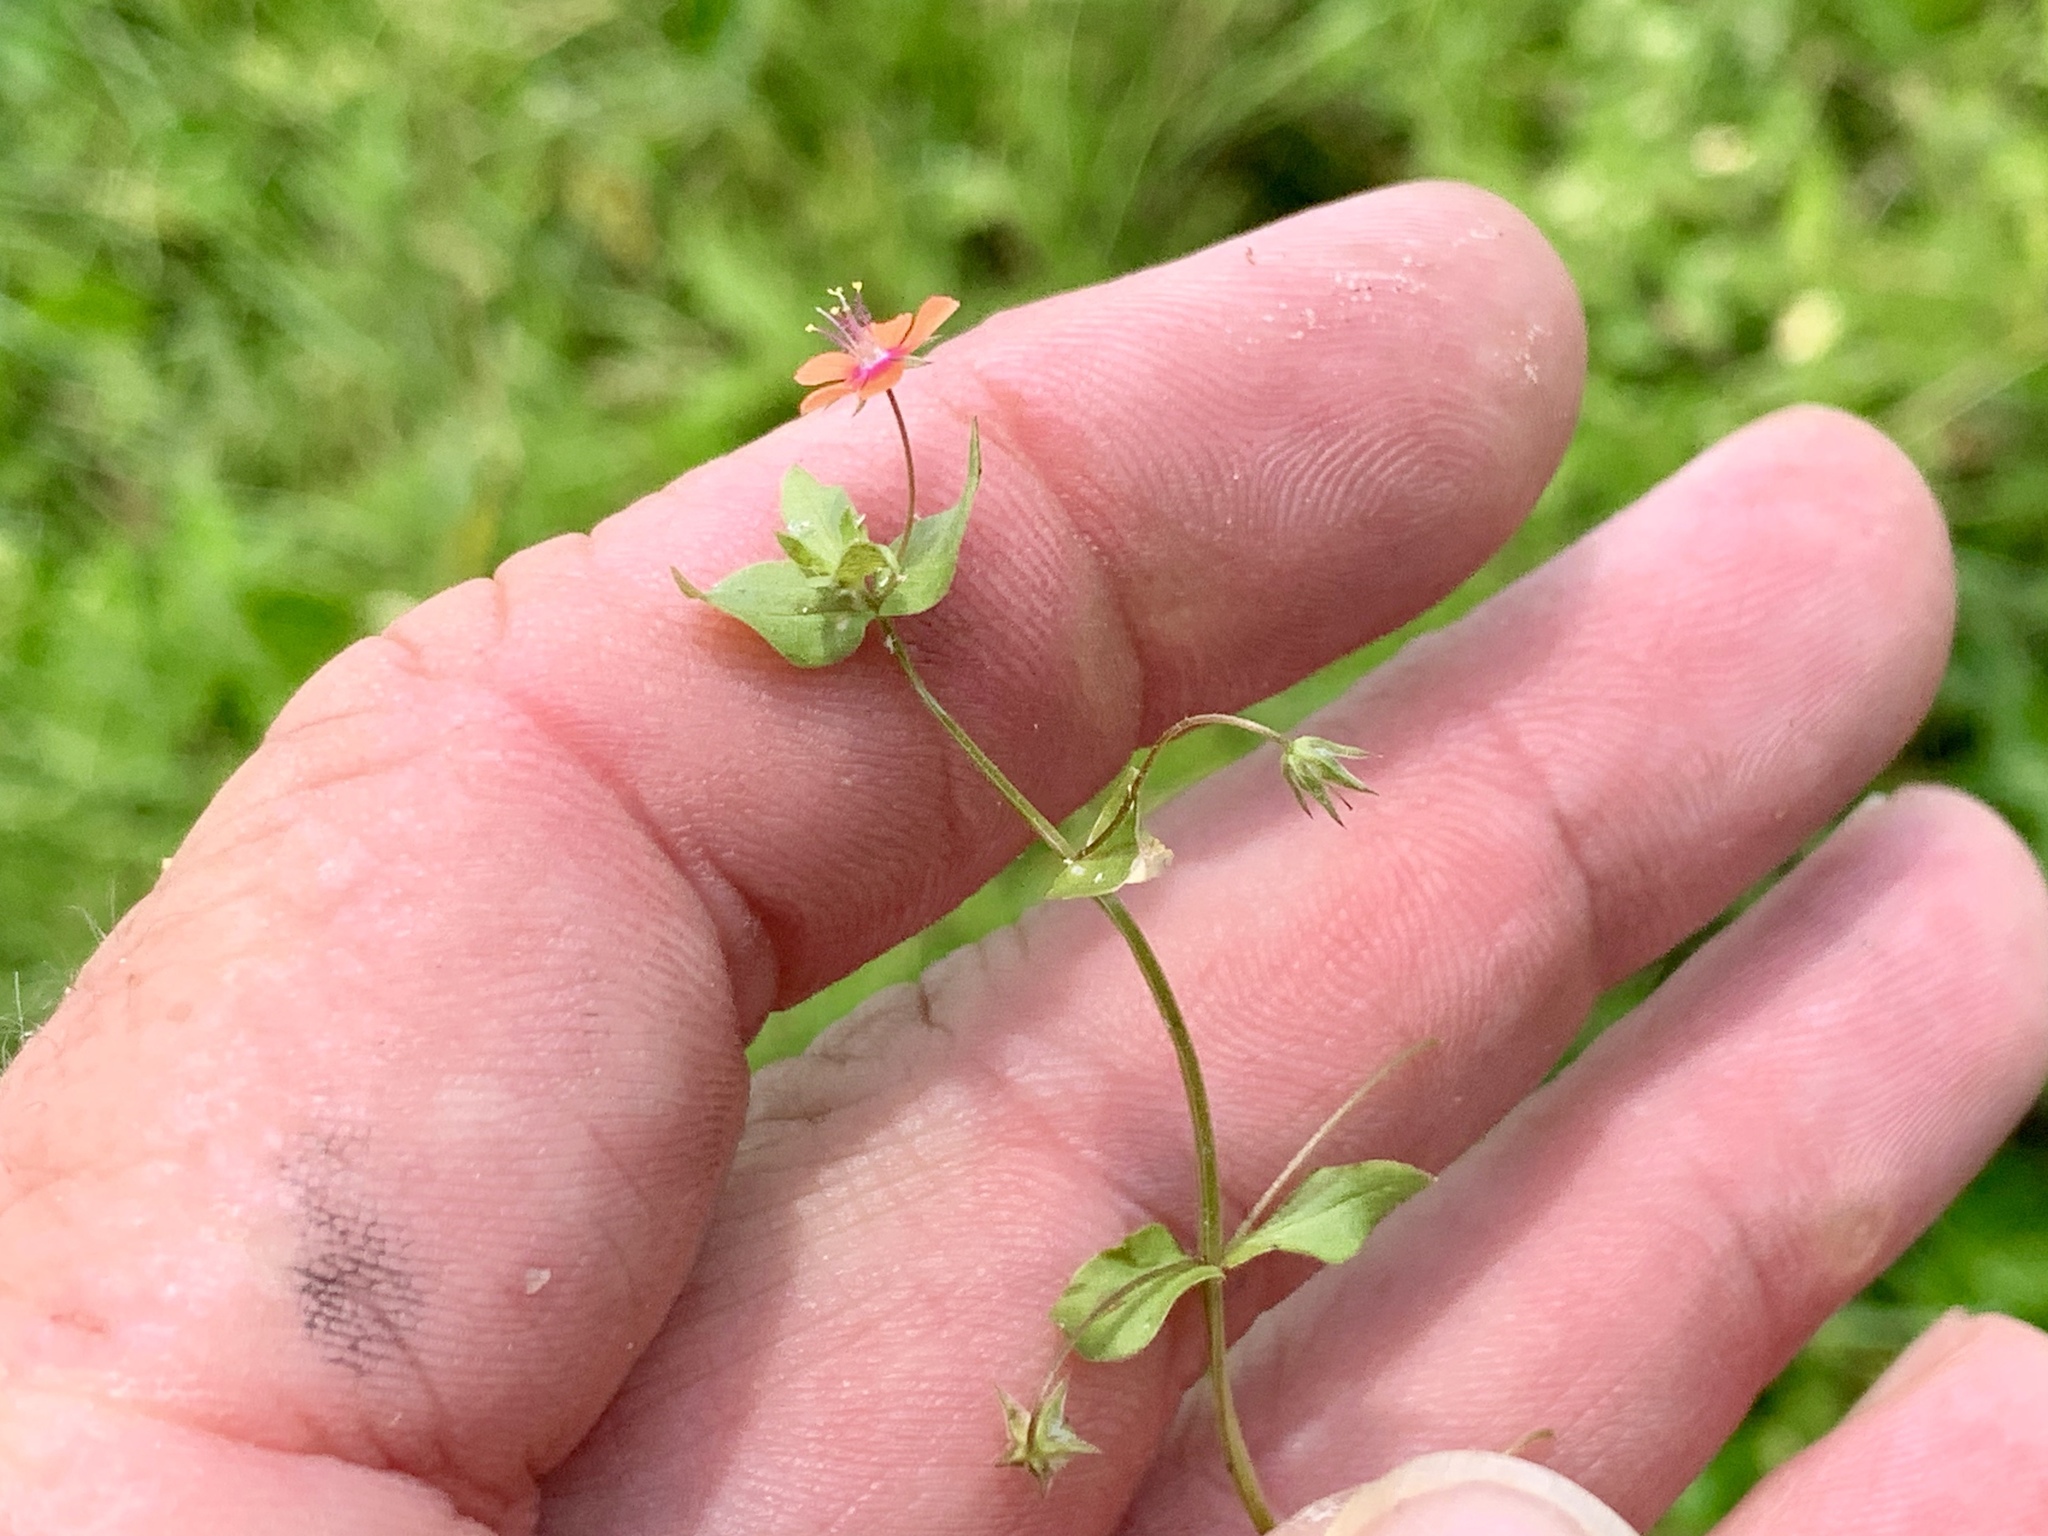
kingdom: Plantae
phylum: Tracheophyta
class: Magnoliopsida
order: Ericales
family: Primulaceae
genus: Lysimachia
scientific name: Lysimachia arvensis
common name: Scarlet pimpernel
